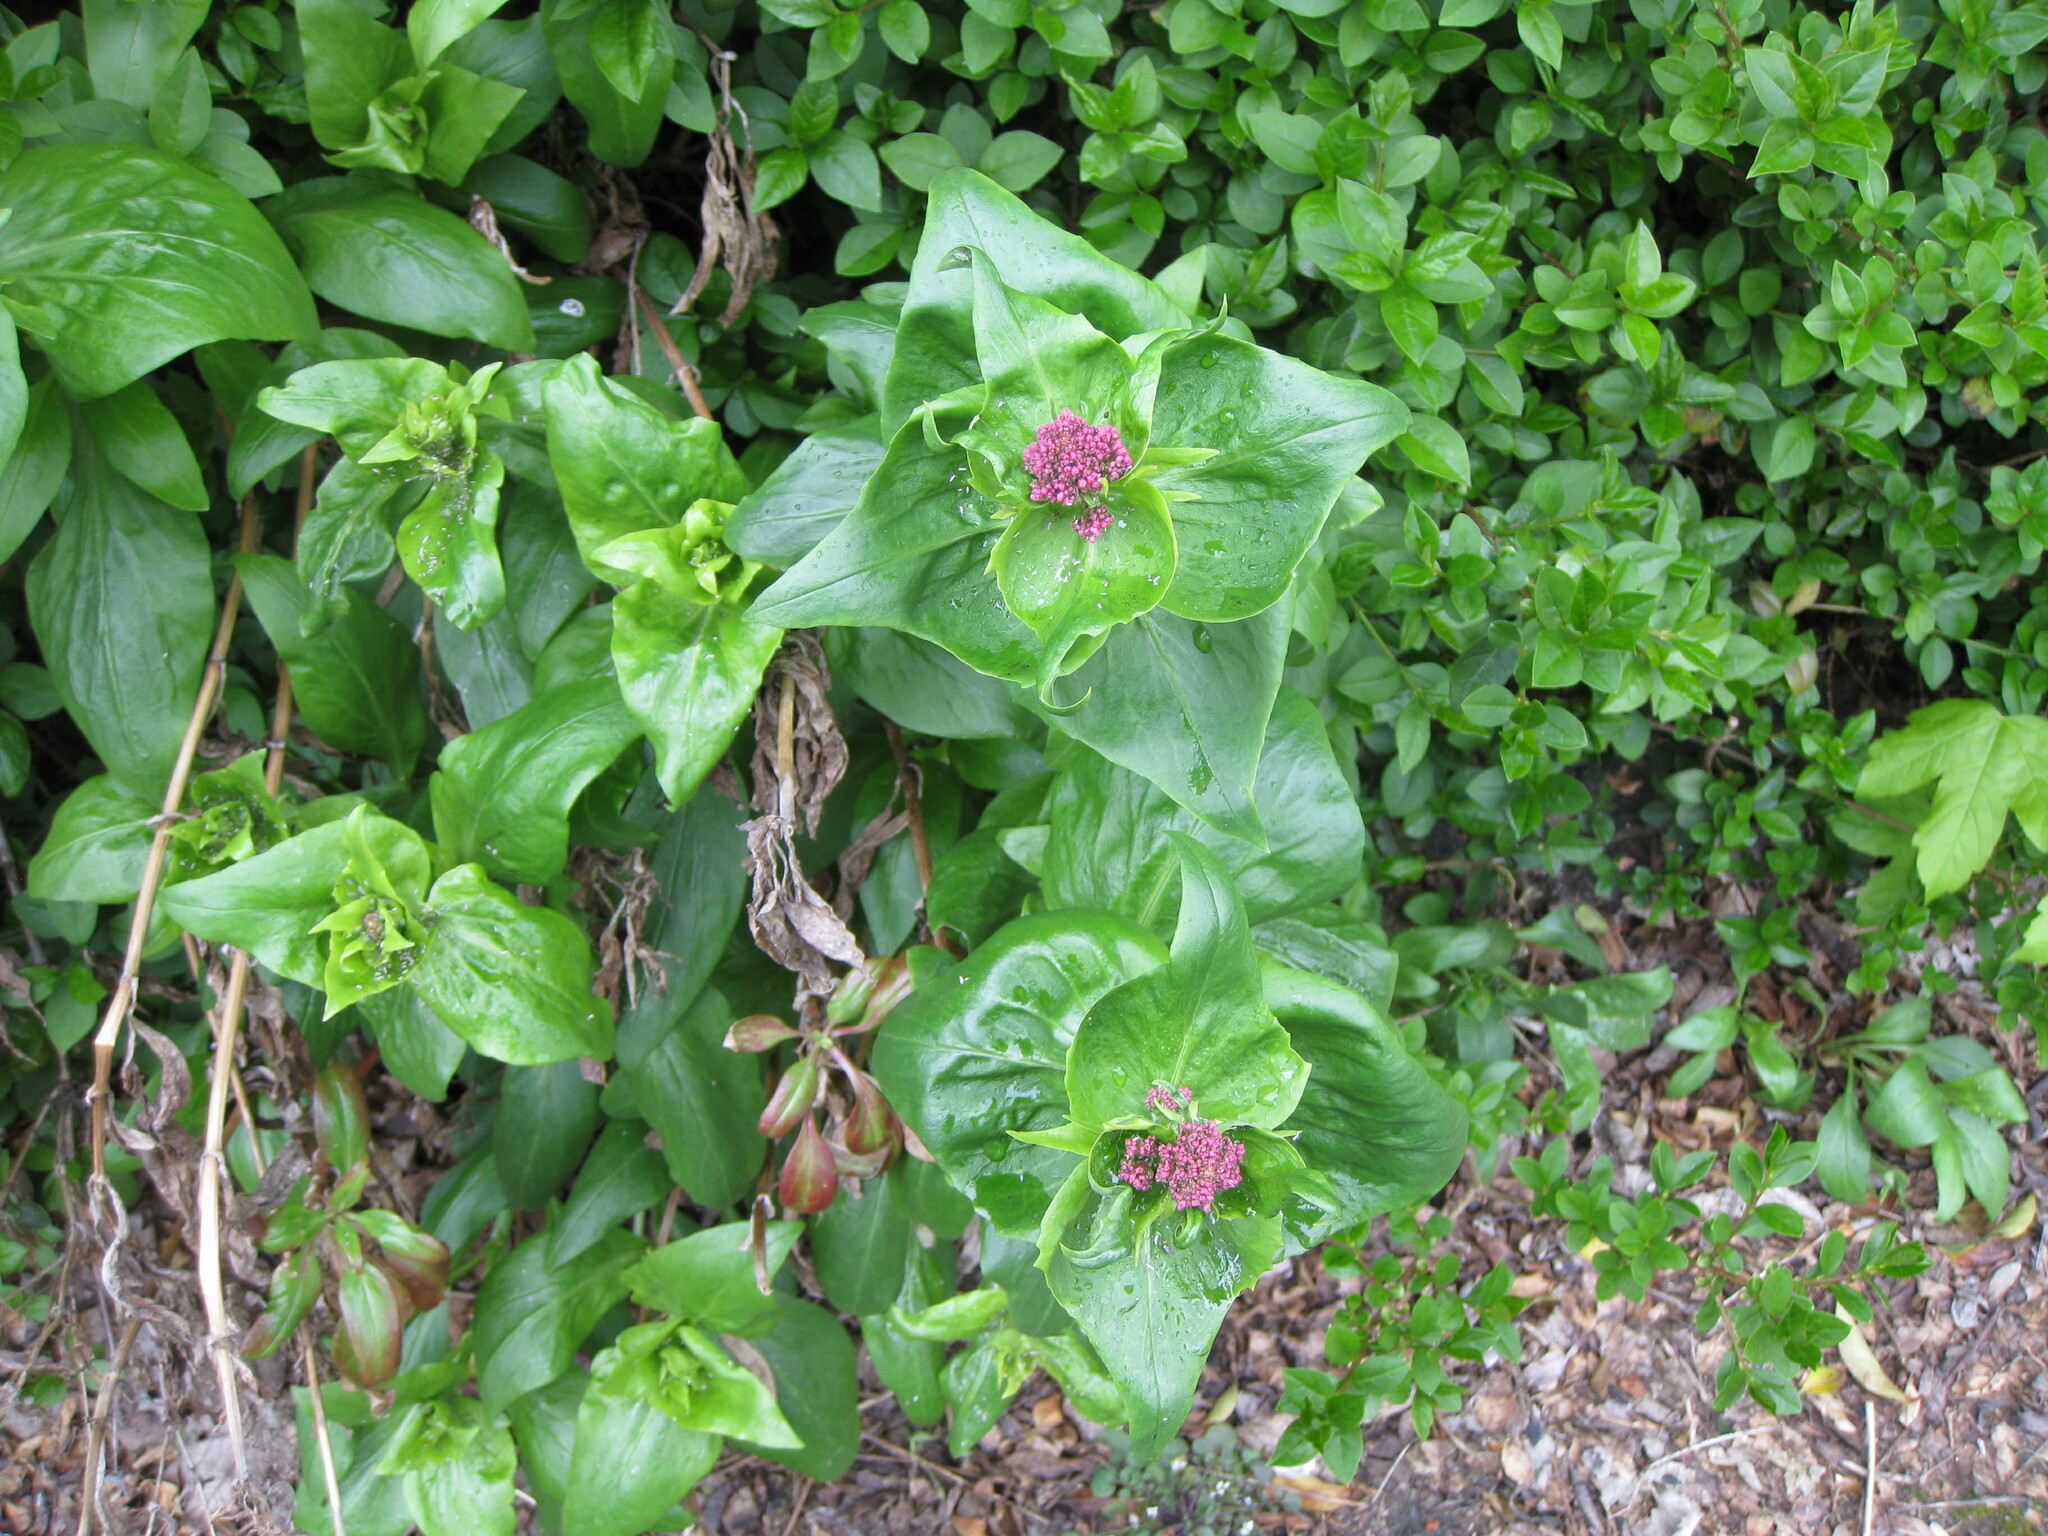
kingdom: Plantae
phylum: Tracheophyta
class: Magnoliopsida
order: Dipsacales
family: Caprifoliaceae
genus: Centranthus
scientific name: Centranthus ruber
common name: Red valerian
